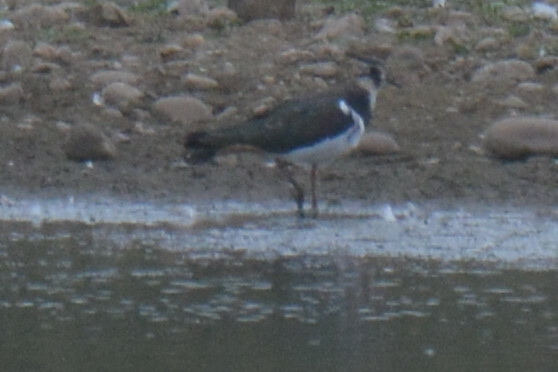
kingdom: Animalia
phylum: Chordata
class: Aves
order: Charadriiformes
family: Charadriidae
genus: Vanellus
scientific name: Vanellus vanellus
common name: Northern lapwing
